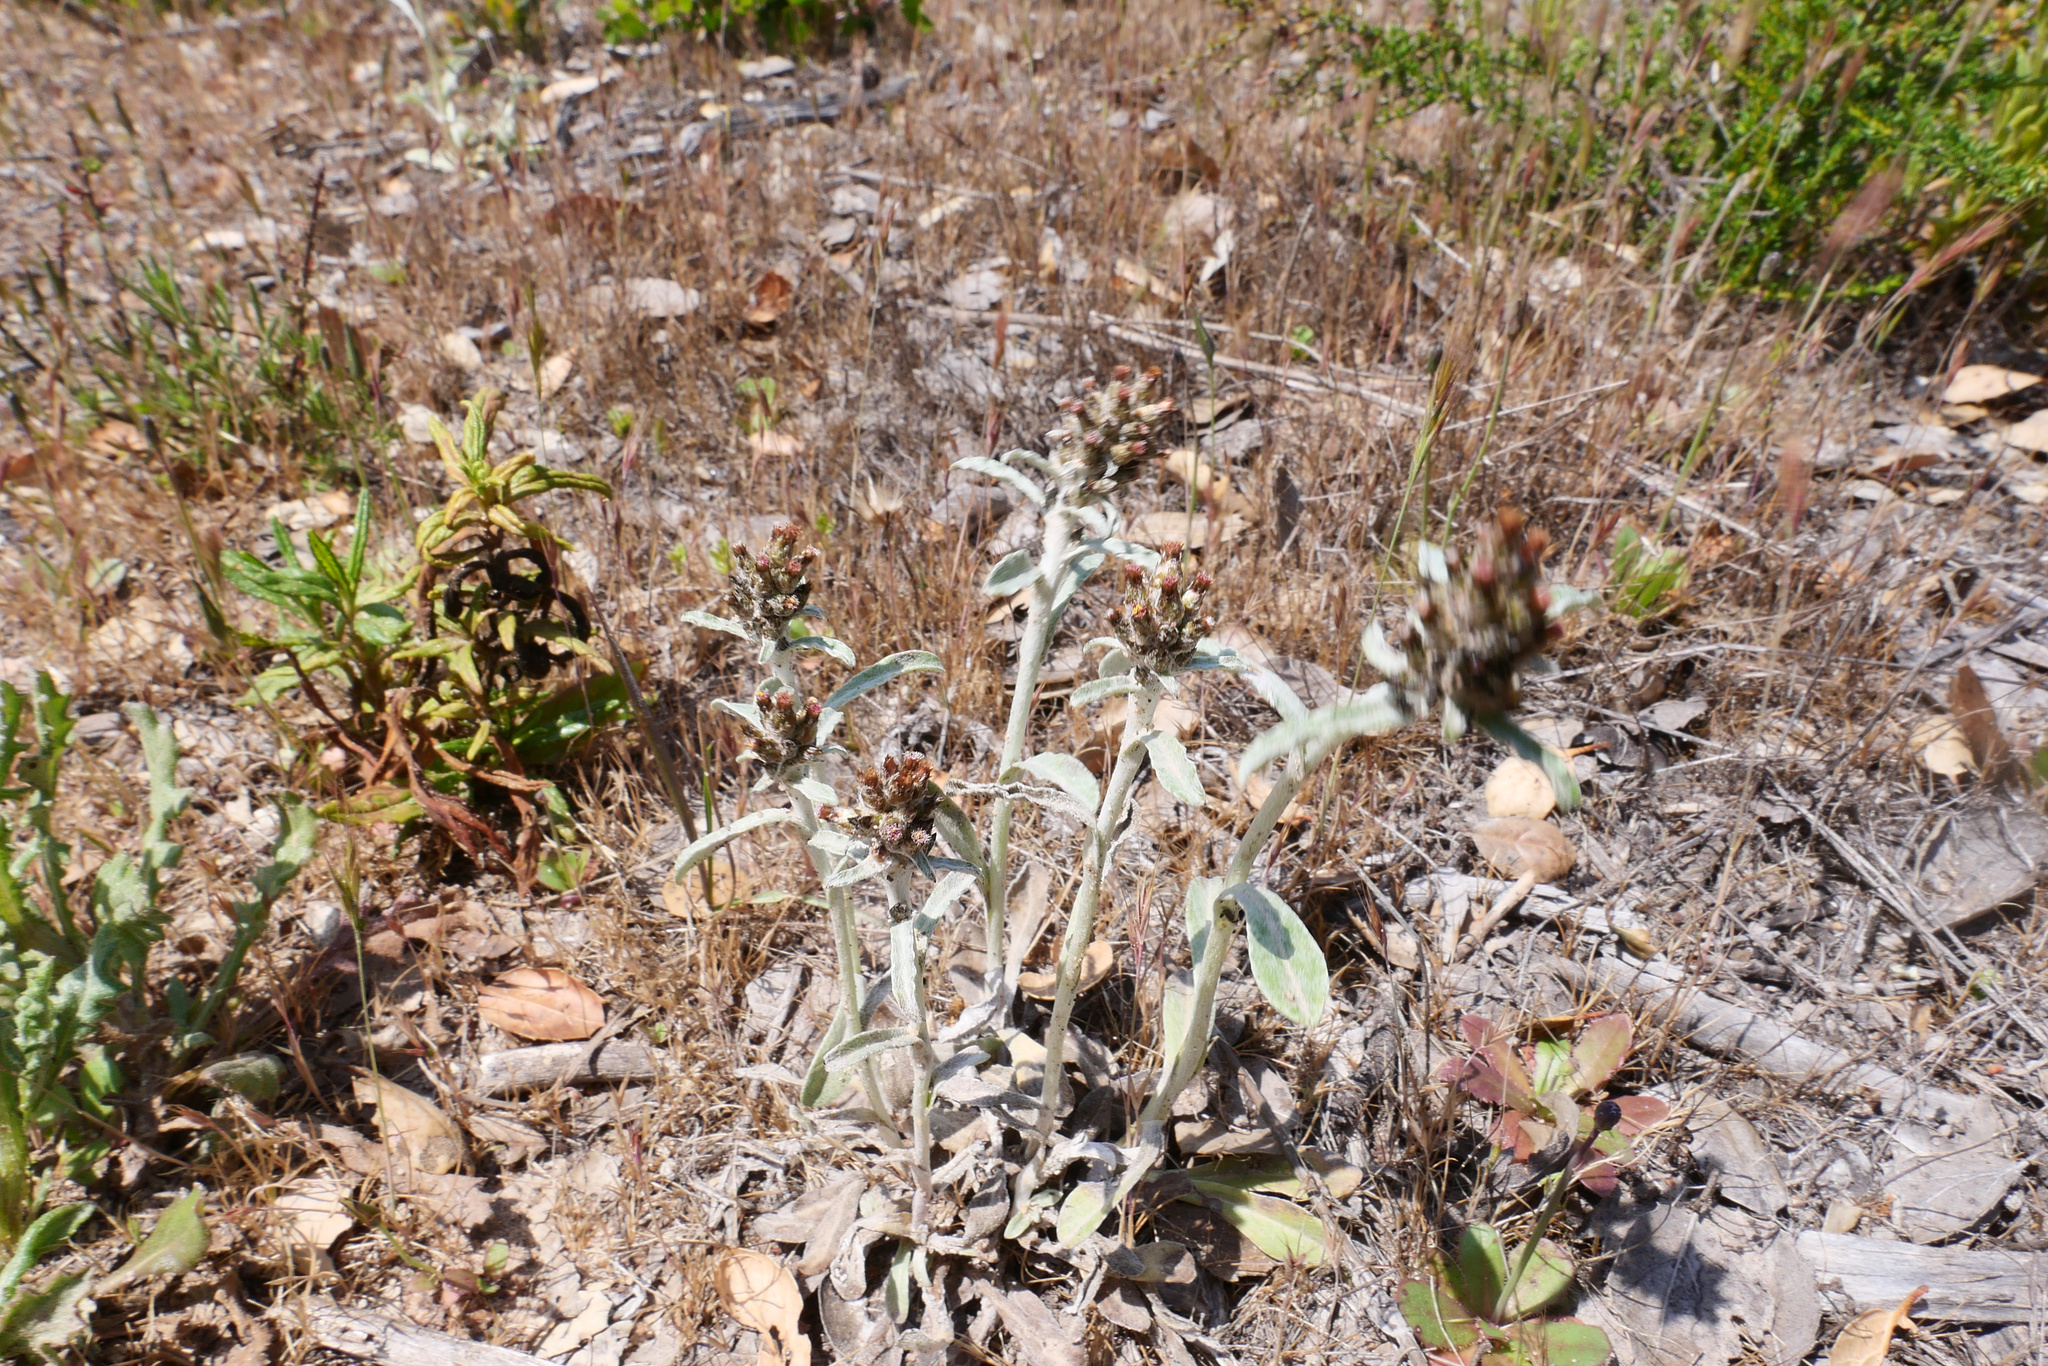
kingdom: Plantae
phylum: Tracheophyta
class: Magnoliopsida
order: Asterales
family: Asteraceae
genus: Gamochaeta
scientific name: Gamochaeta ustulata
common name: Pacific cudweed
